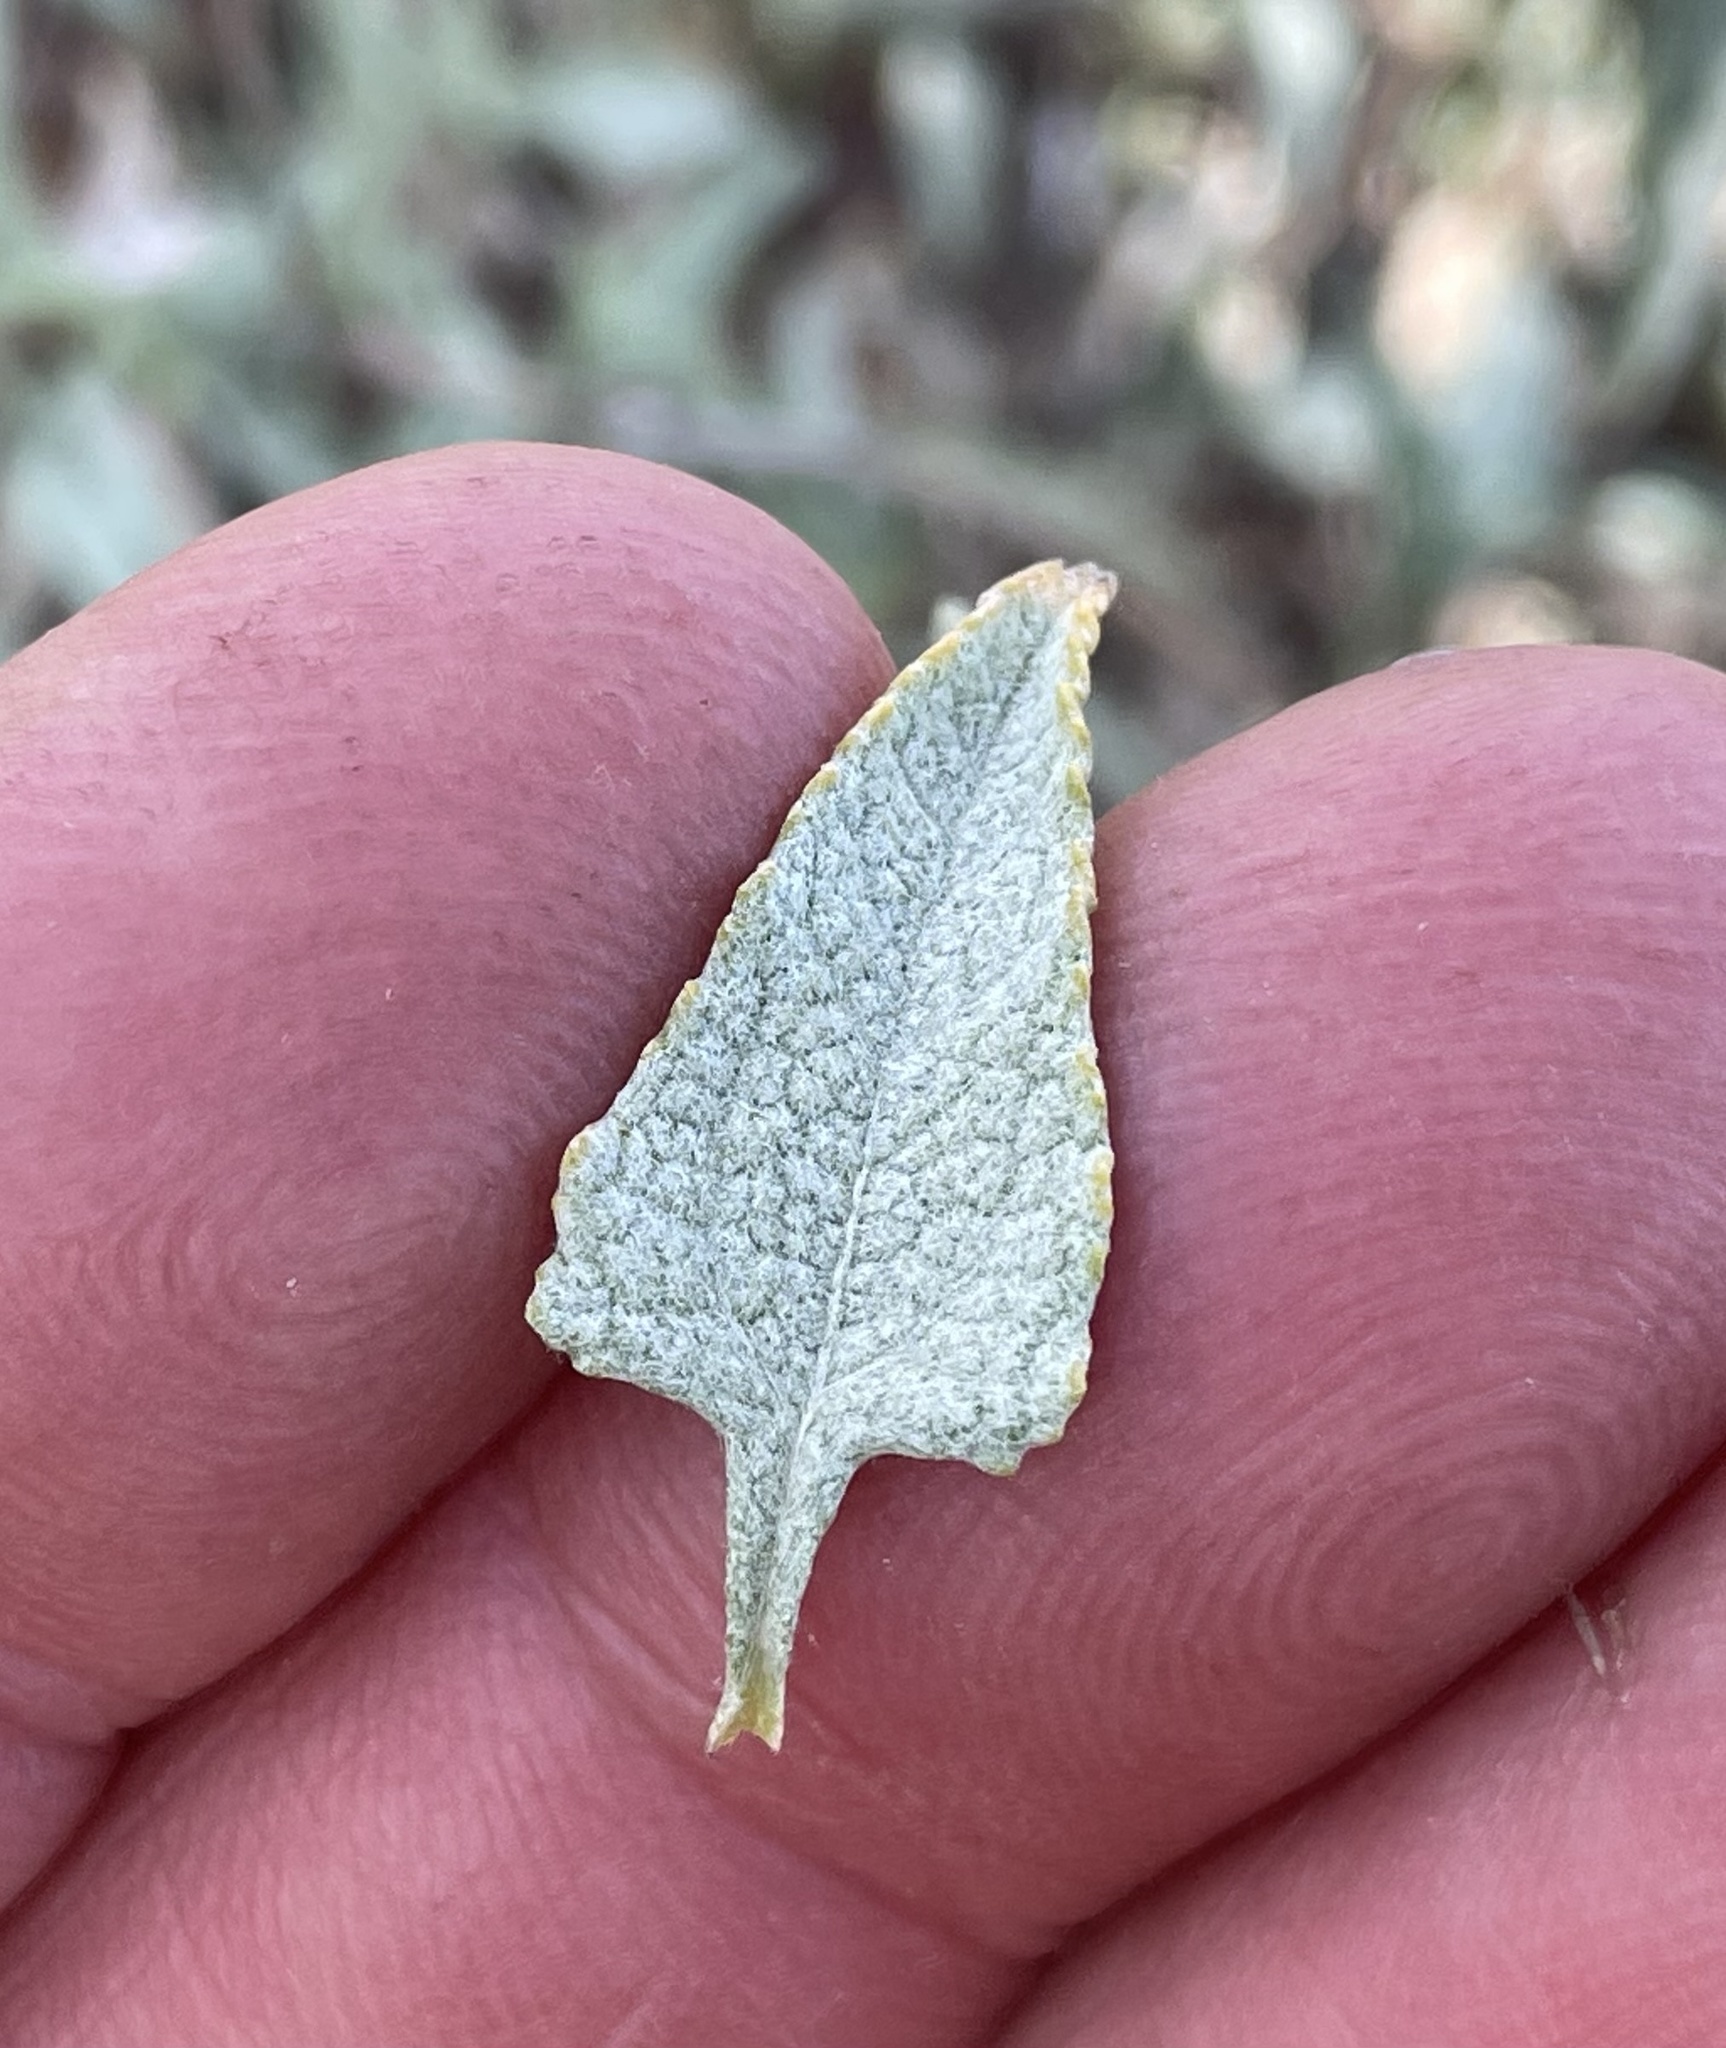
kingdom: Plantae
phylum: Tracheophyta
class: Magnoliopsida
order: Asterales
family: Asteraceae
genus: Ambrosia
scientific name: Ambrosia deltoidea
